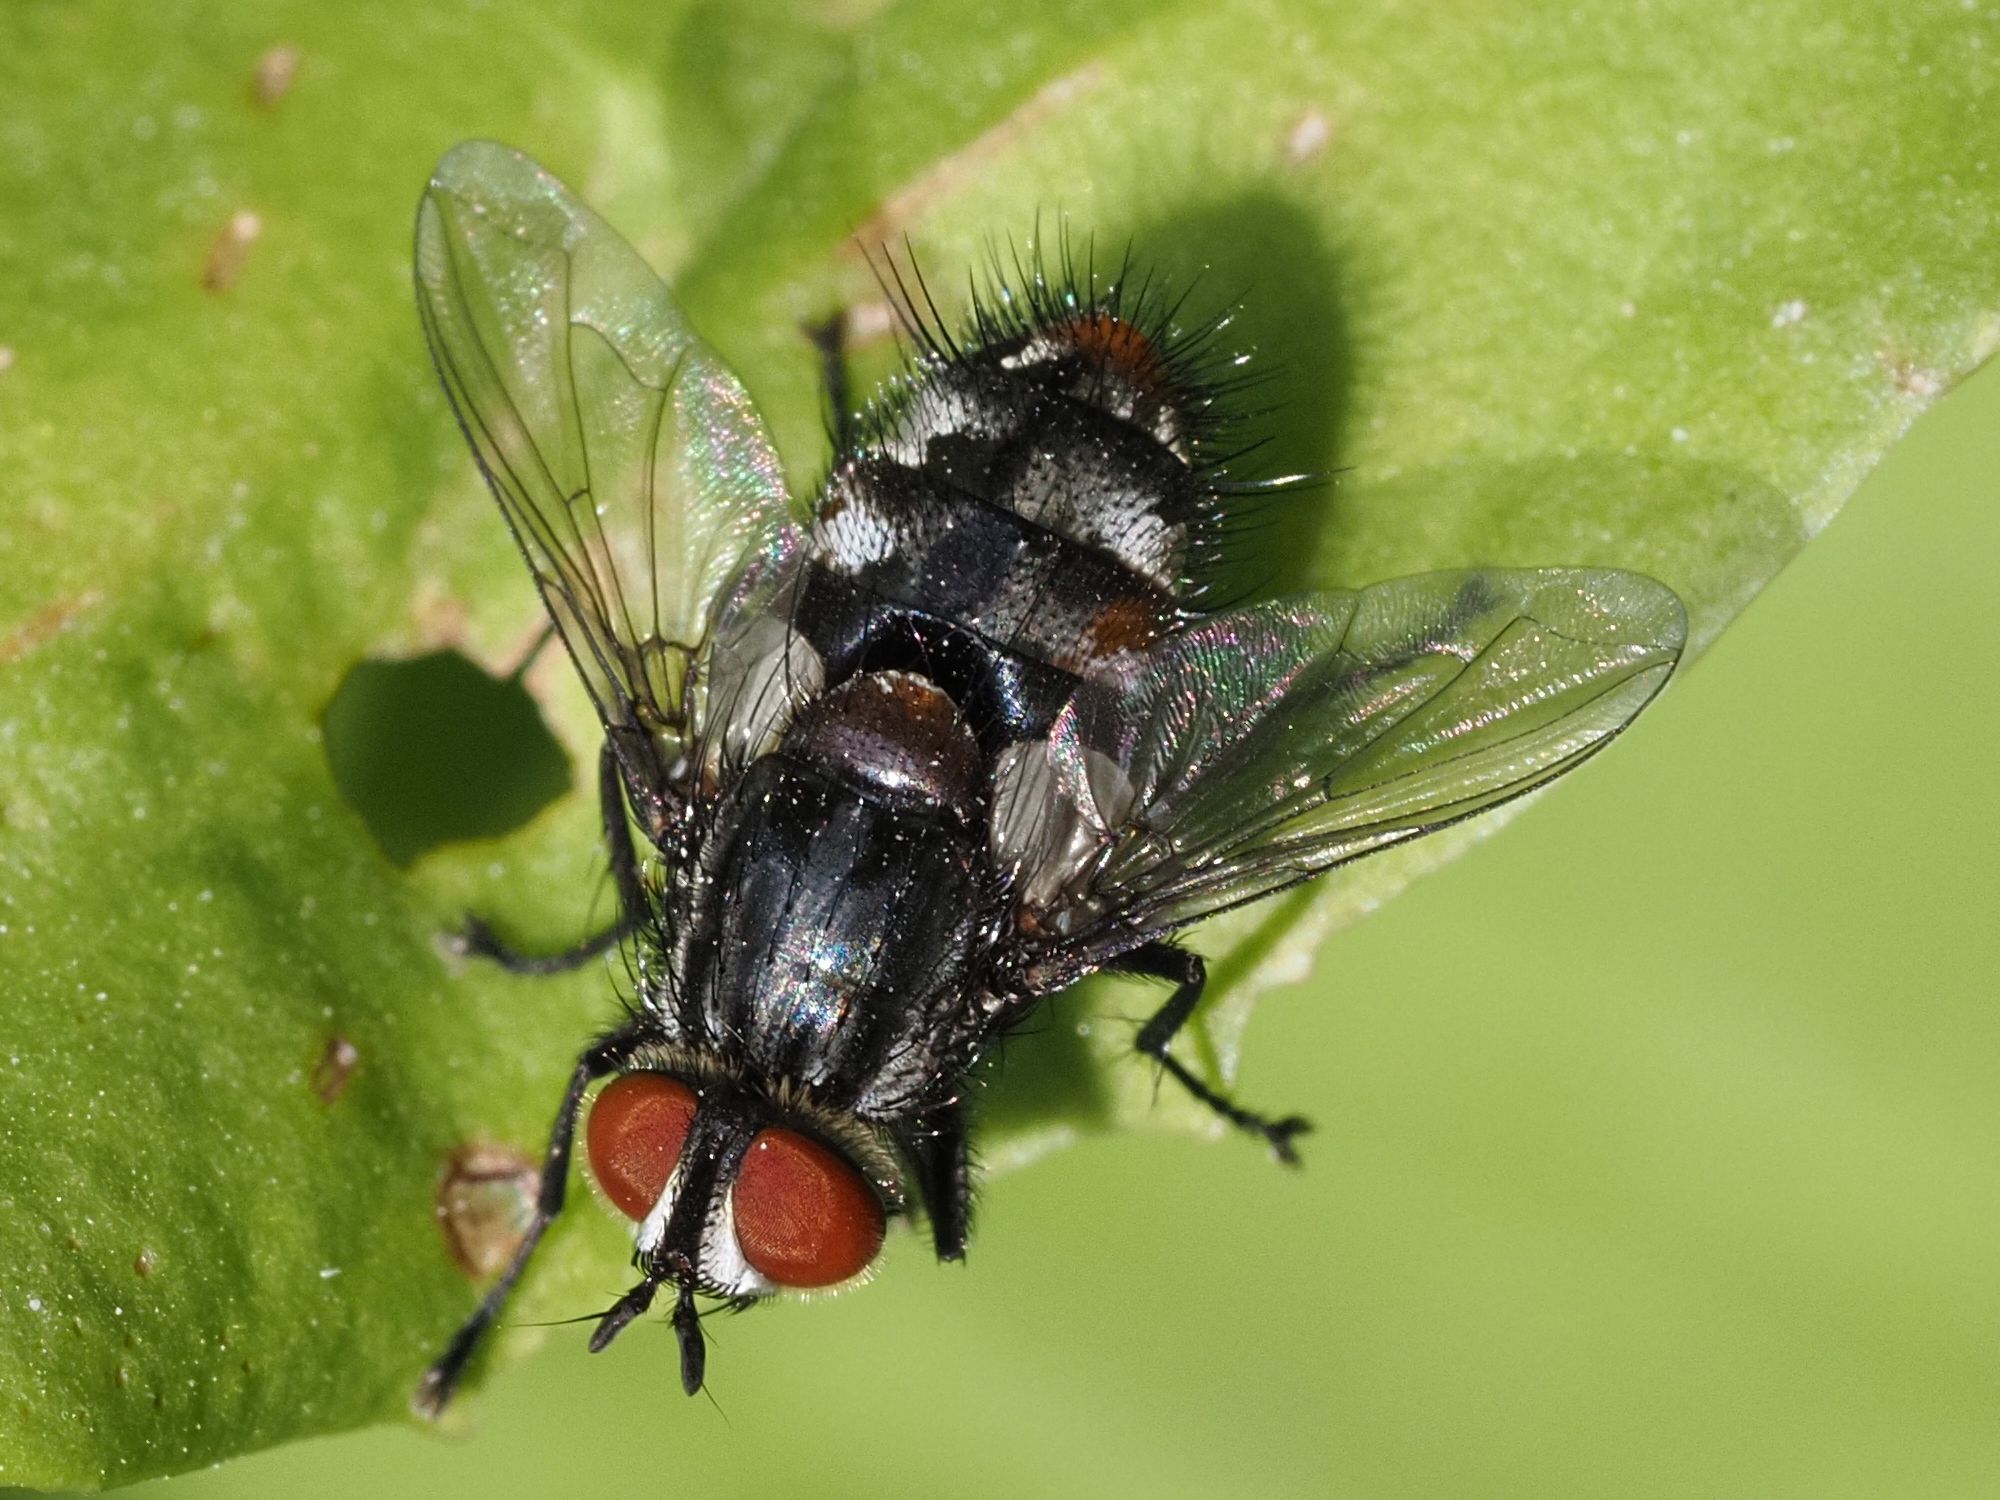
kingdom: Animalia
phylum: Arthropoda
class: Insecta
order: Diptera
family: Tachinidae
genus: Winthemia
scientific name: Winthemia quadripustulata
